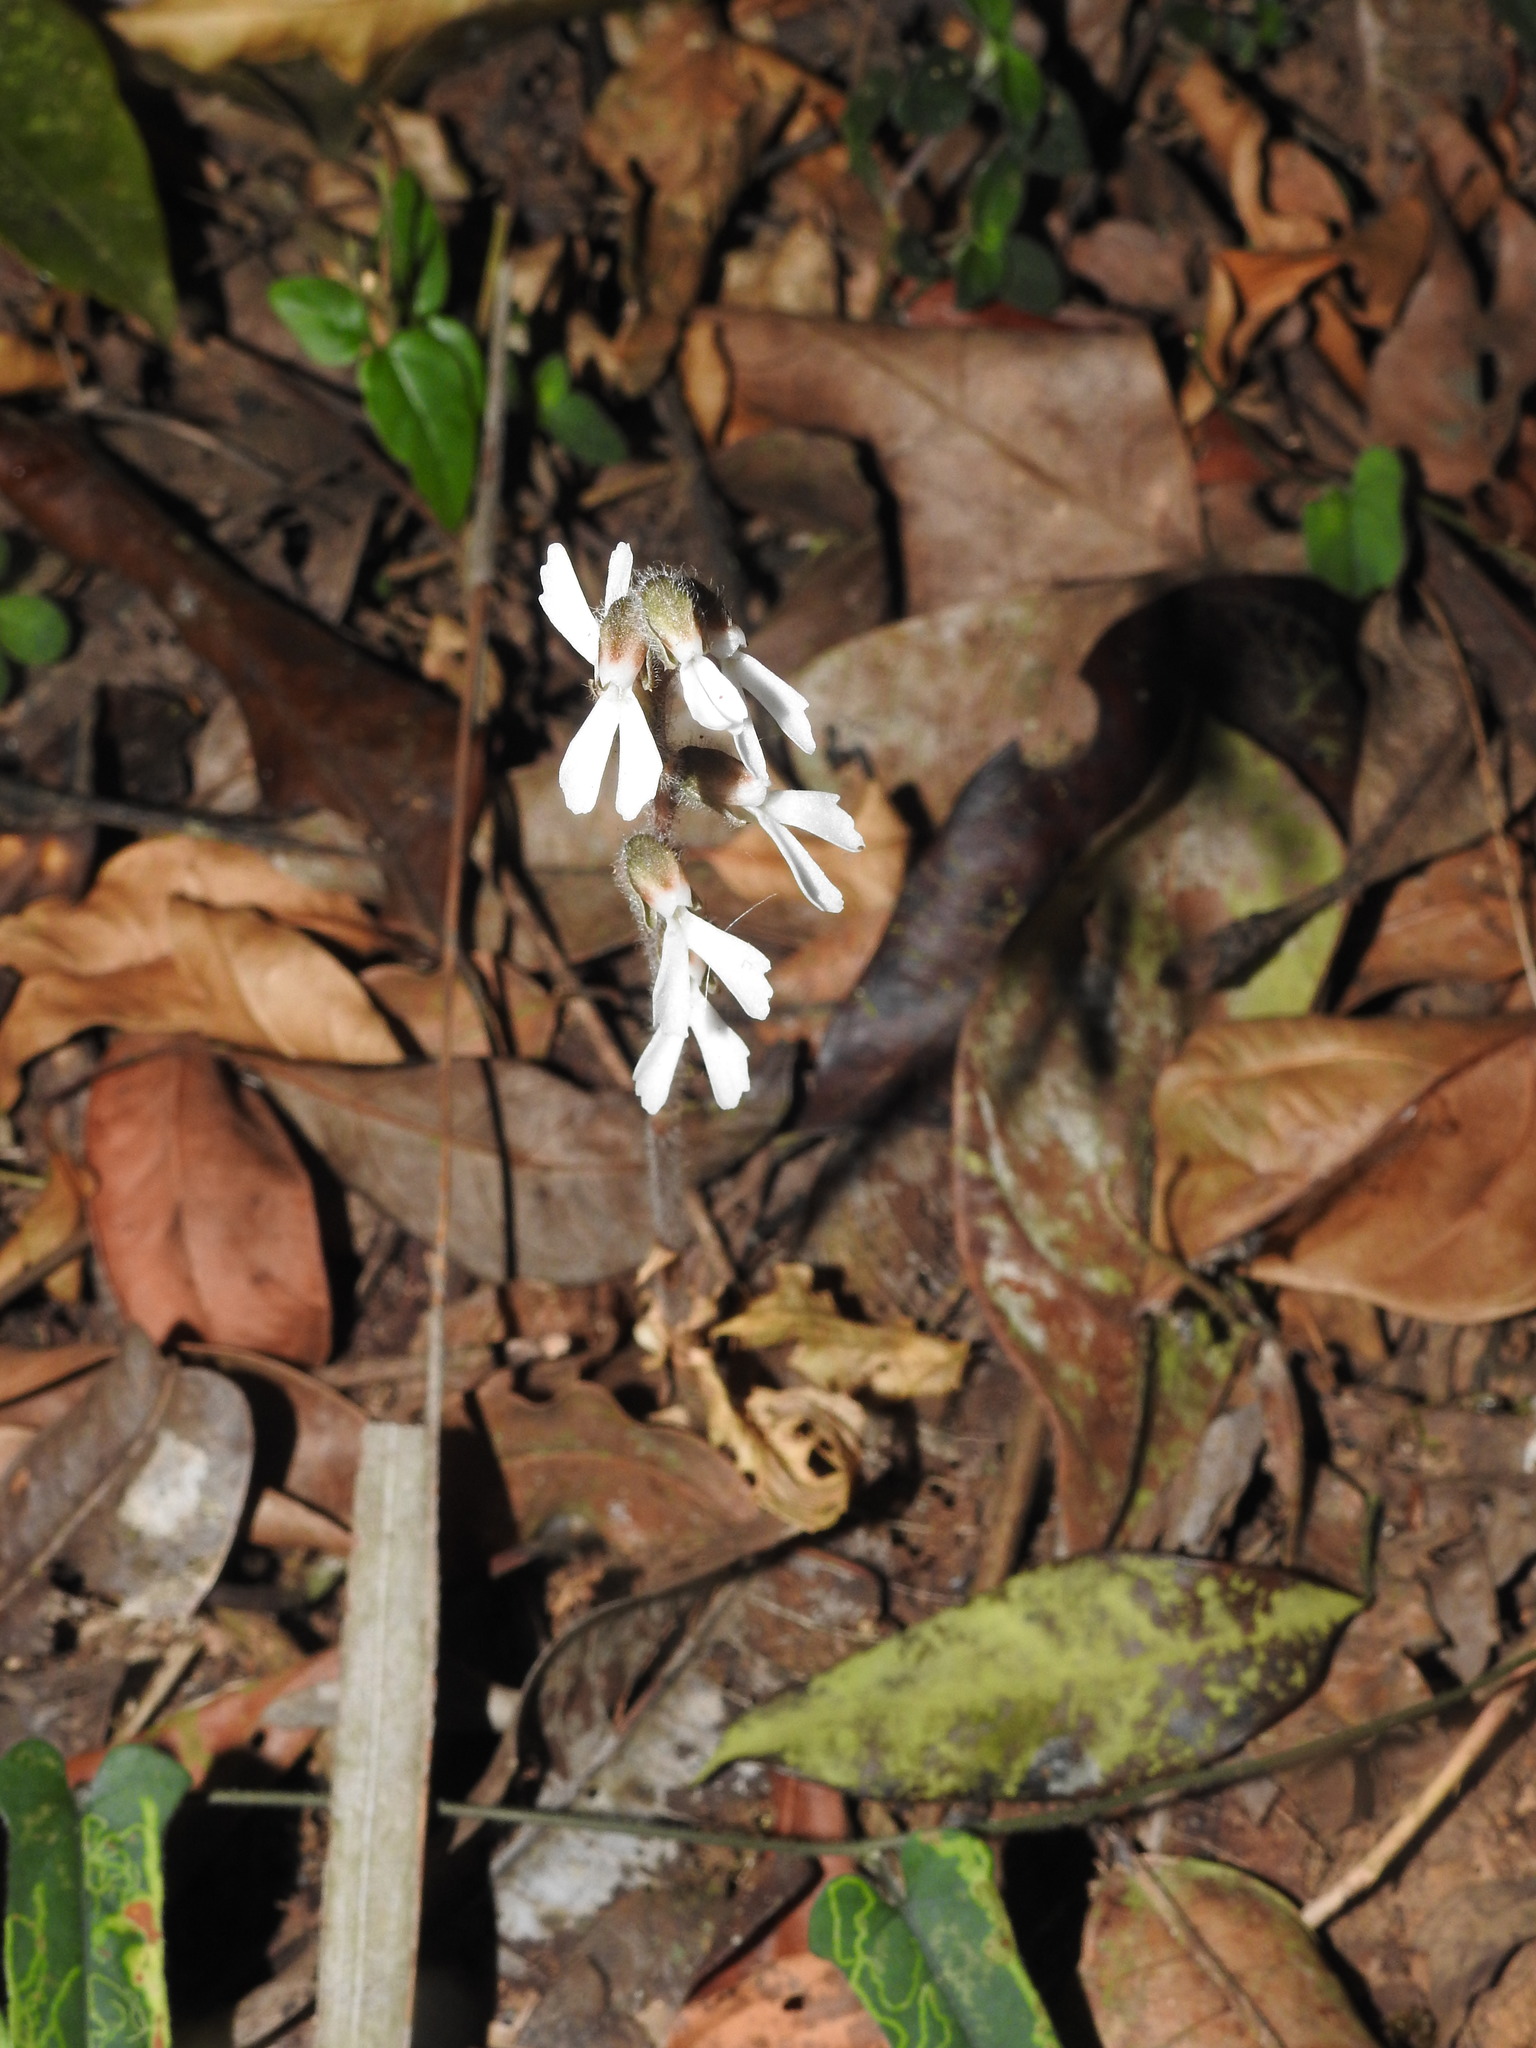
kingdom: Plantae
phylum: Tracheophyta
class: Liliopsida
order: Asparagales
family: Orchidaceae
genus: Zeuxine
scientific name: Zeuxine longilabris
